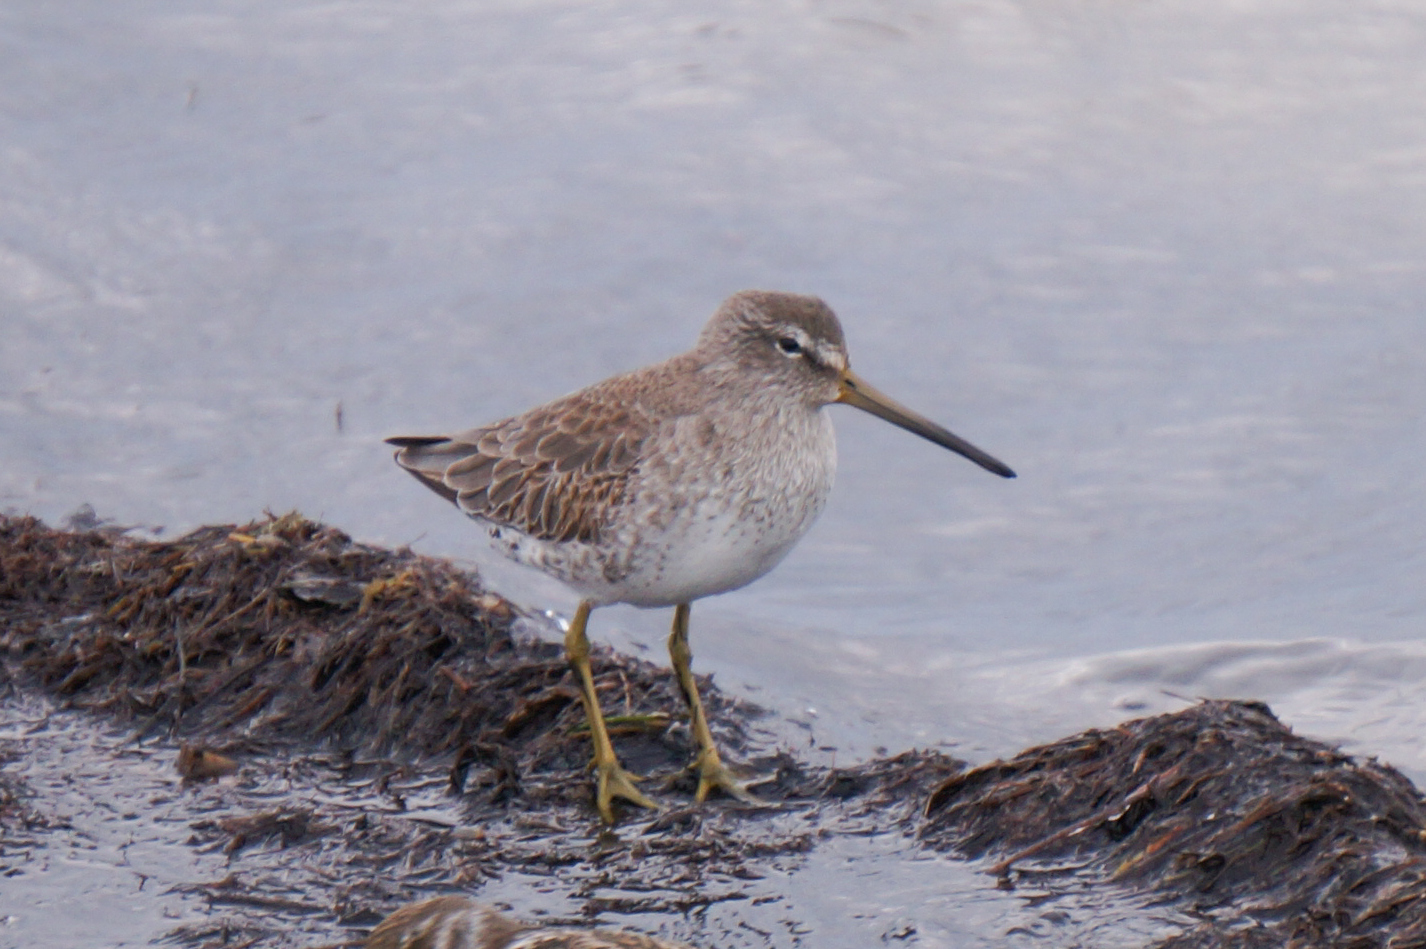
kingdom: Animalia
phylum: Chordata
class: Aves
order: Charadriiformes
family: Scolopacidae
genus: Limnodromus
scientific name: Limnodromus griseus
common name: Short-billed dowitcher
